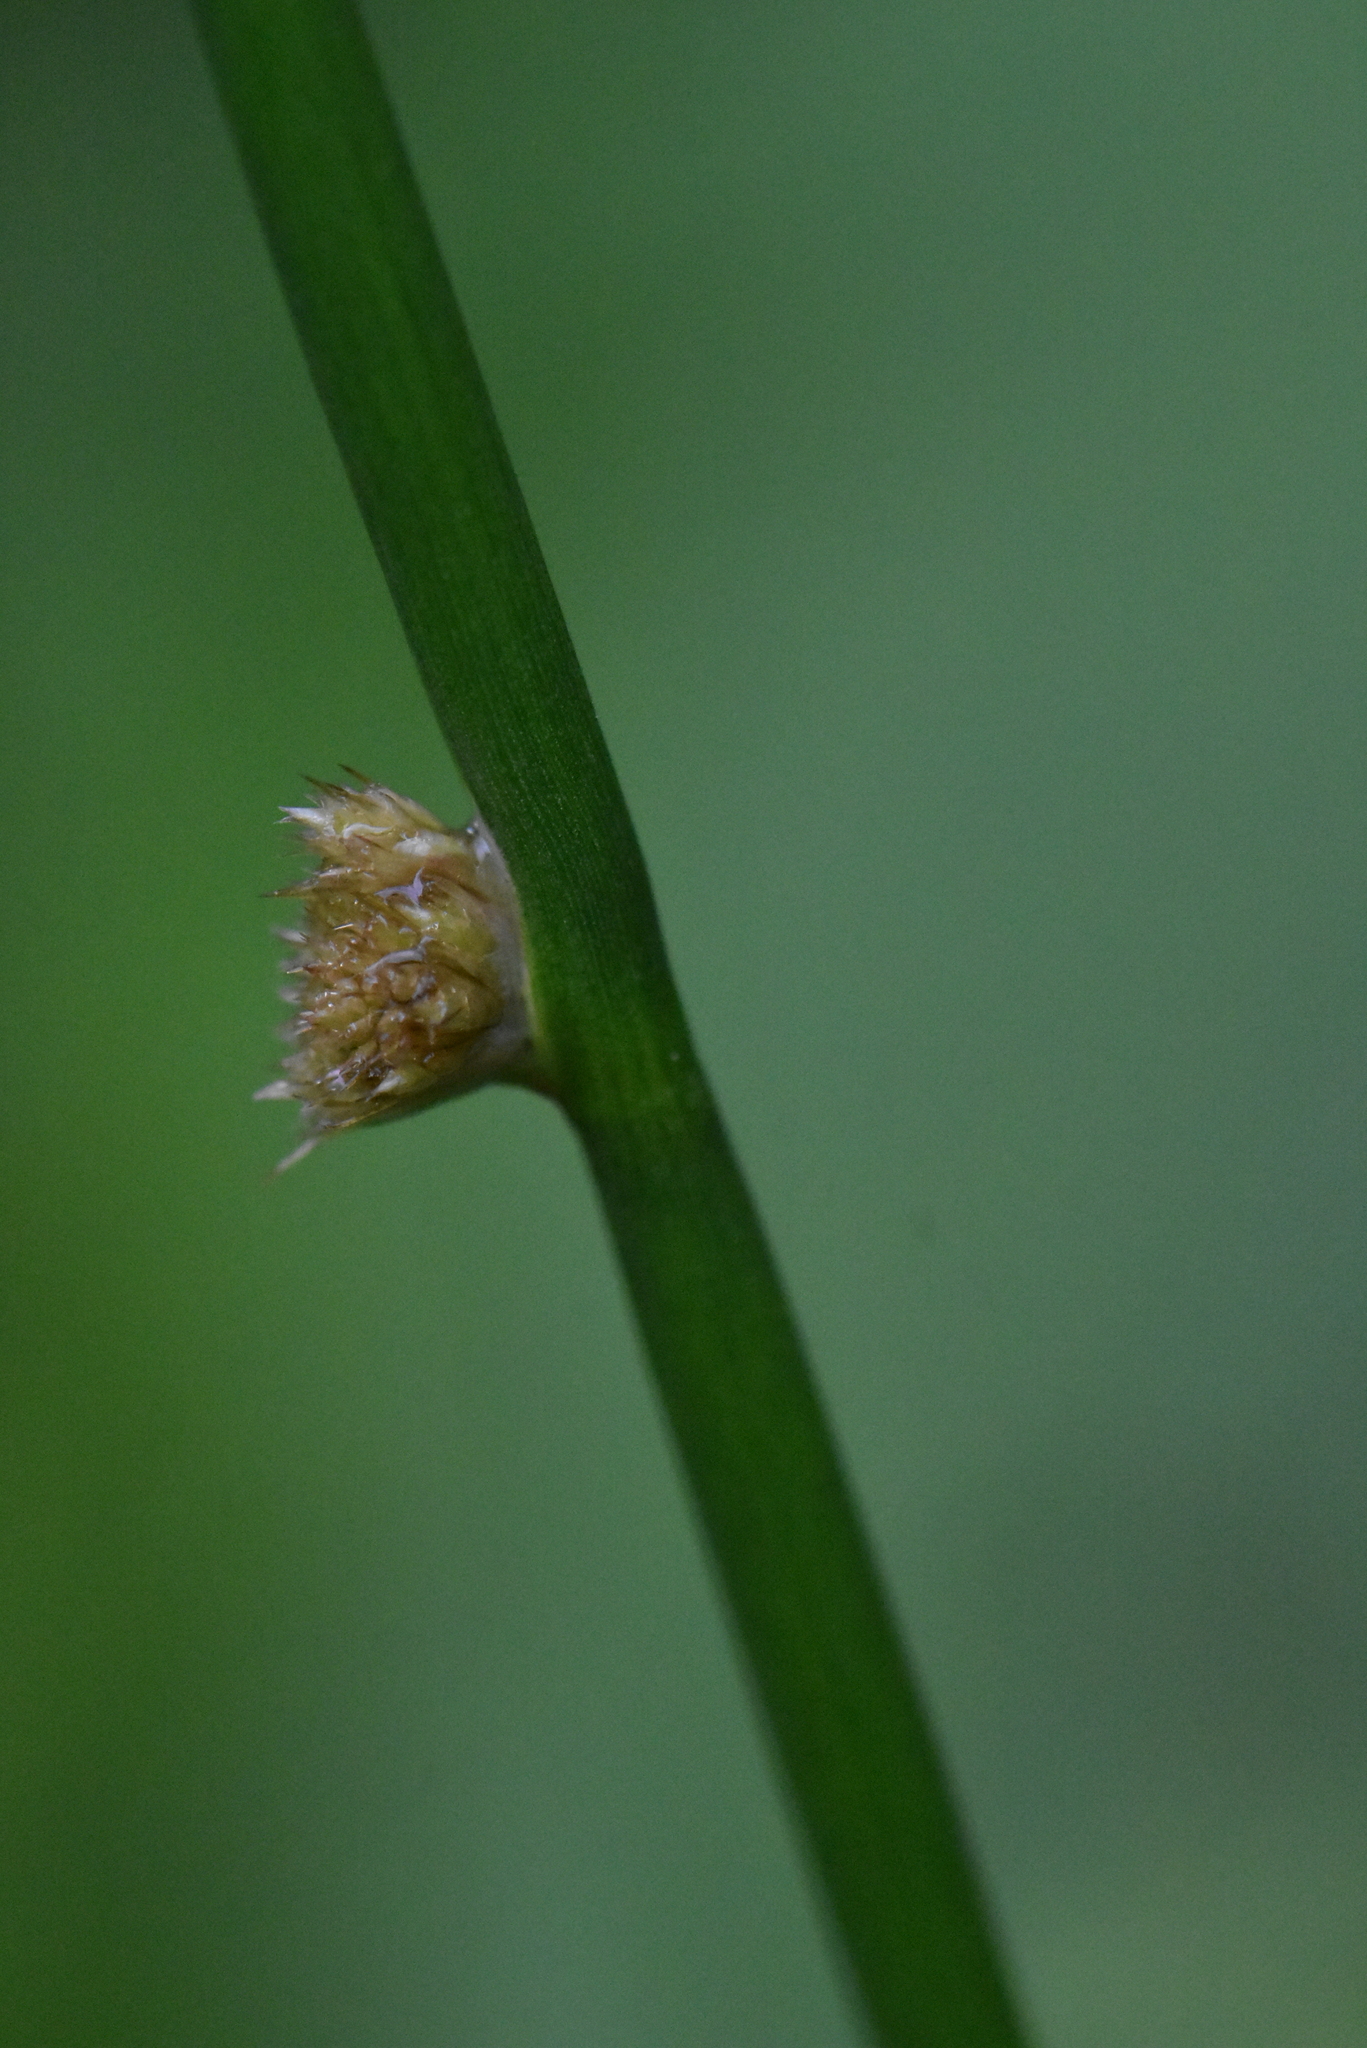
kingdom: Plantae
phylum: Tracheophyta
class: Liliopsida
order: Poales
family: Juncaceae
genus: Juncus
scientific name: Juncus conglomeratus
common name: Compact rush
